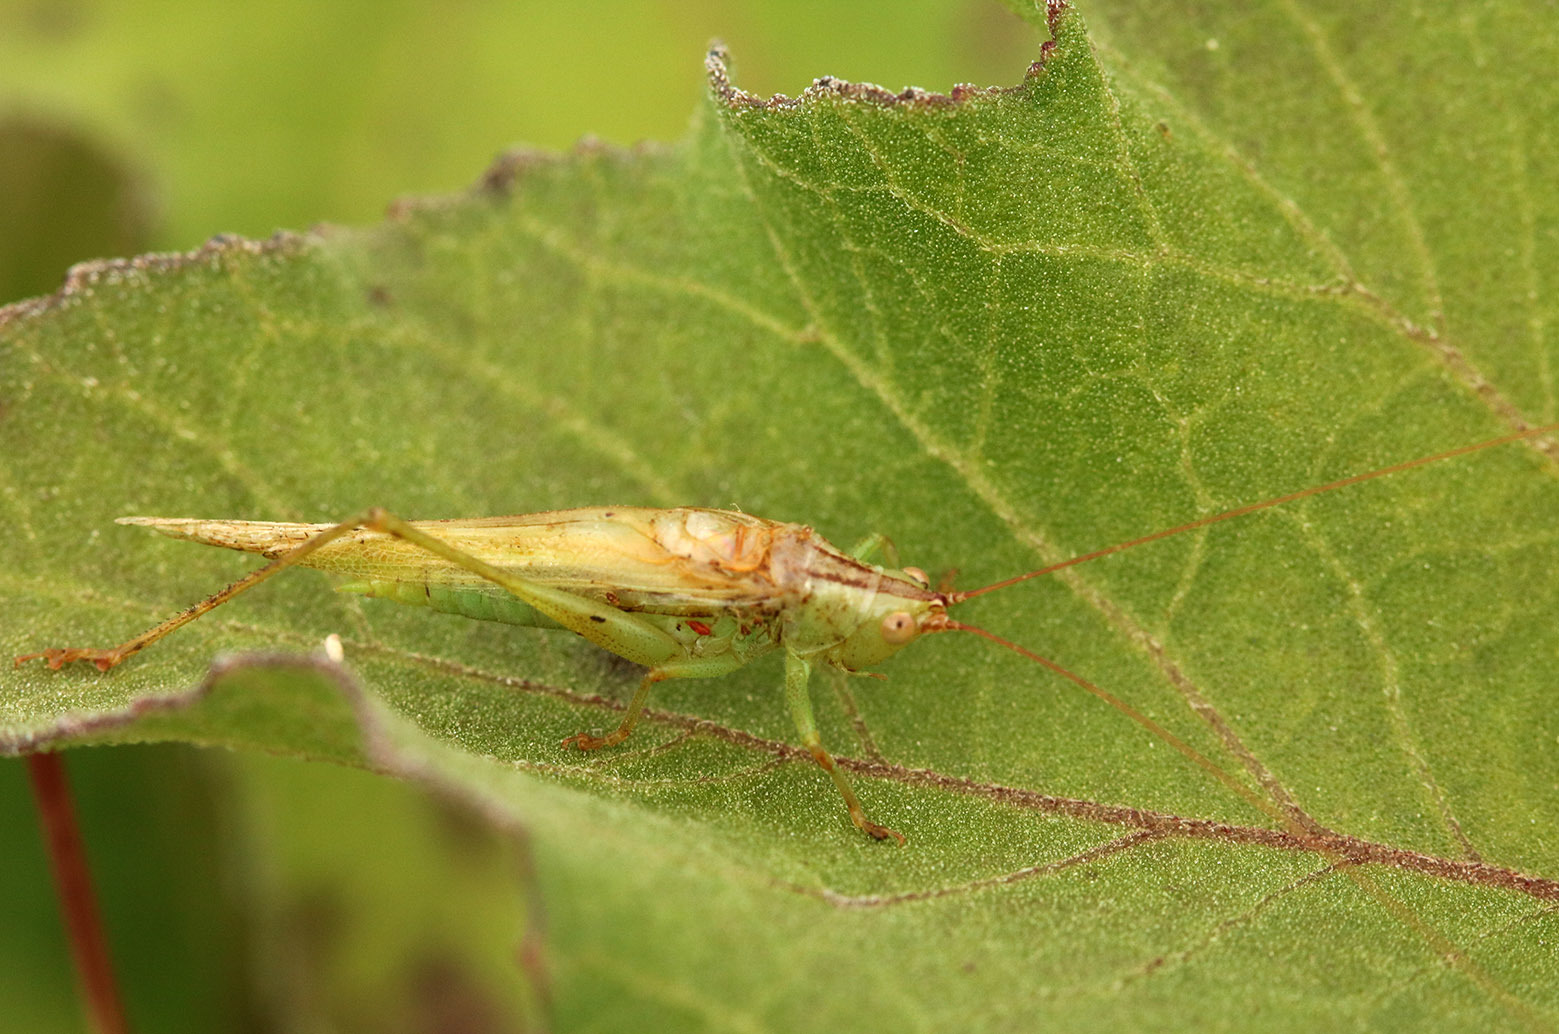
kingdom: Animalia
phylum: Arthropoda
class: Insecta
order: Orthoptera
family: Tettigoniidae
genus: Conocephalus
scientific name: Conocephalus longipes
